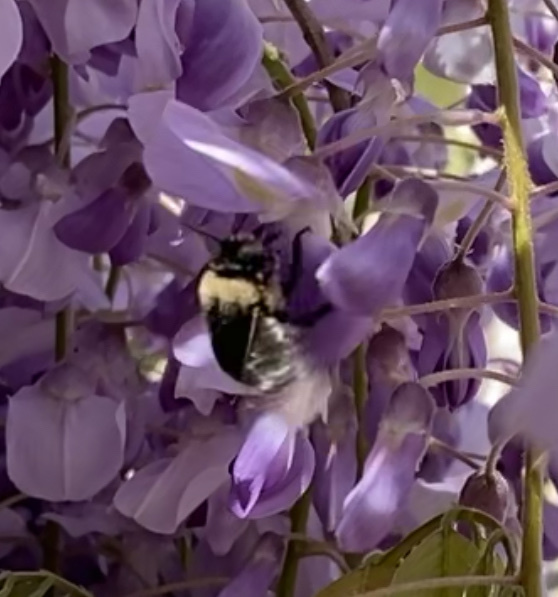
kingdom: Animalia
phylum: Arthropoda
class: Insecta
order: Hymenoptera
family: Apidae
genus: Xylocopa
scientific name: Xylocopa tabaniformis
